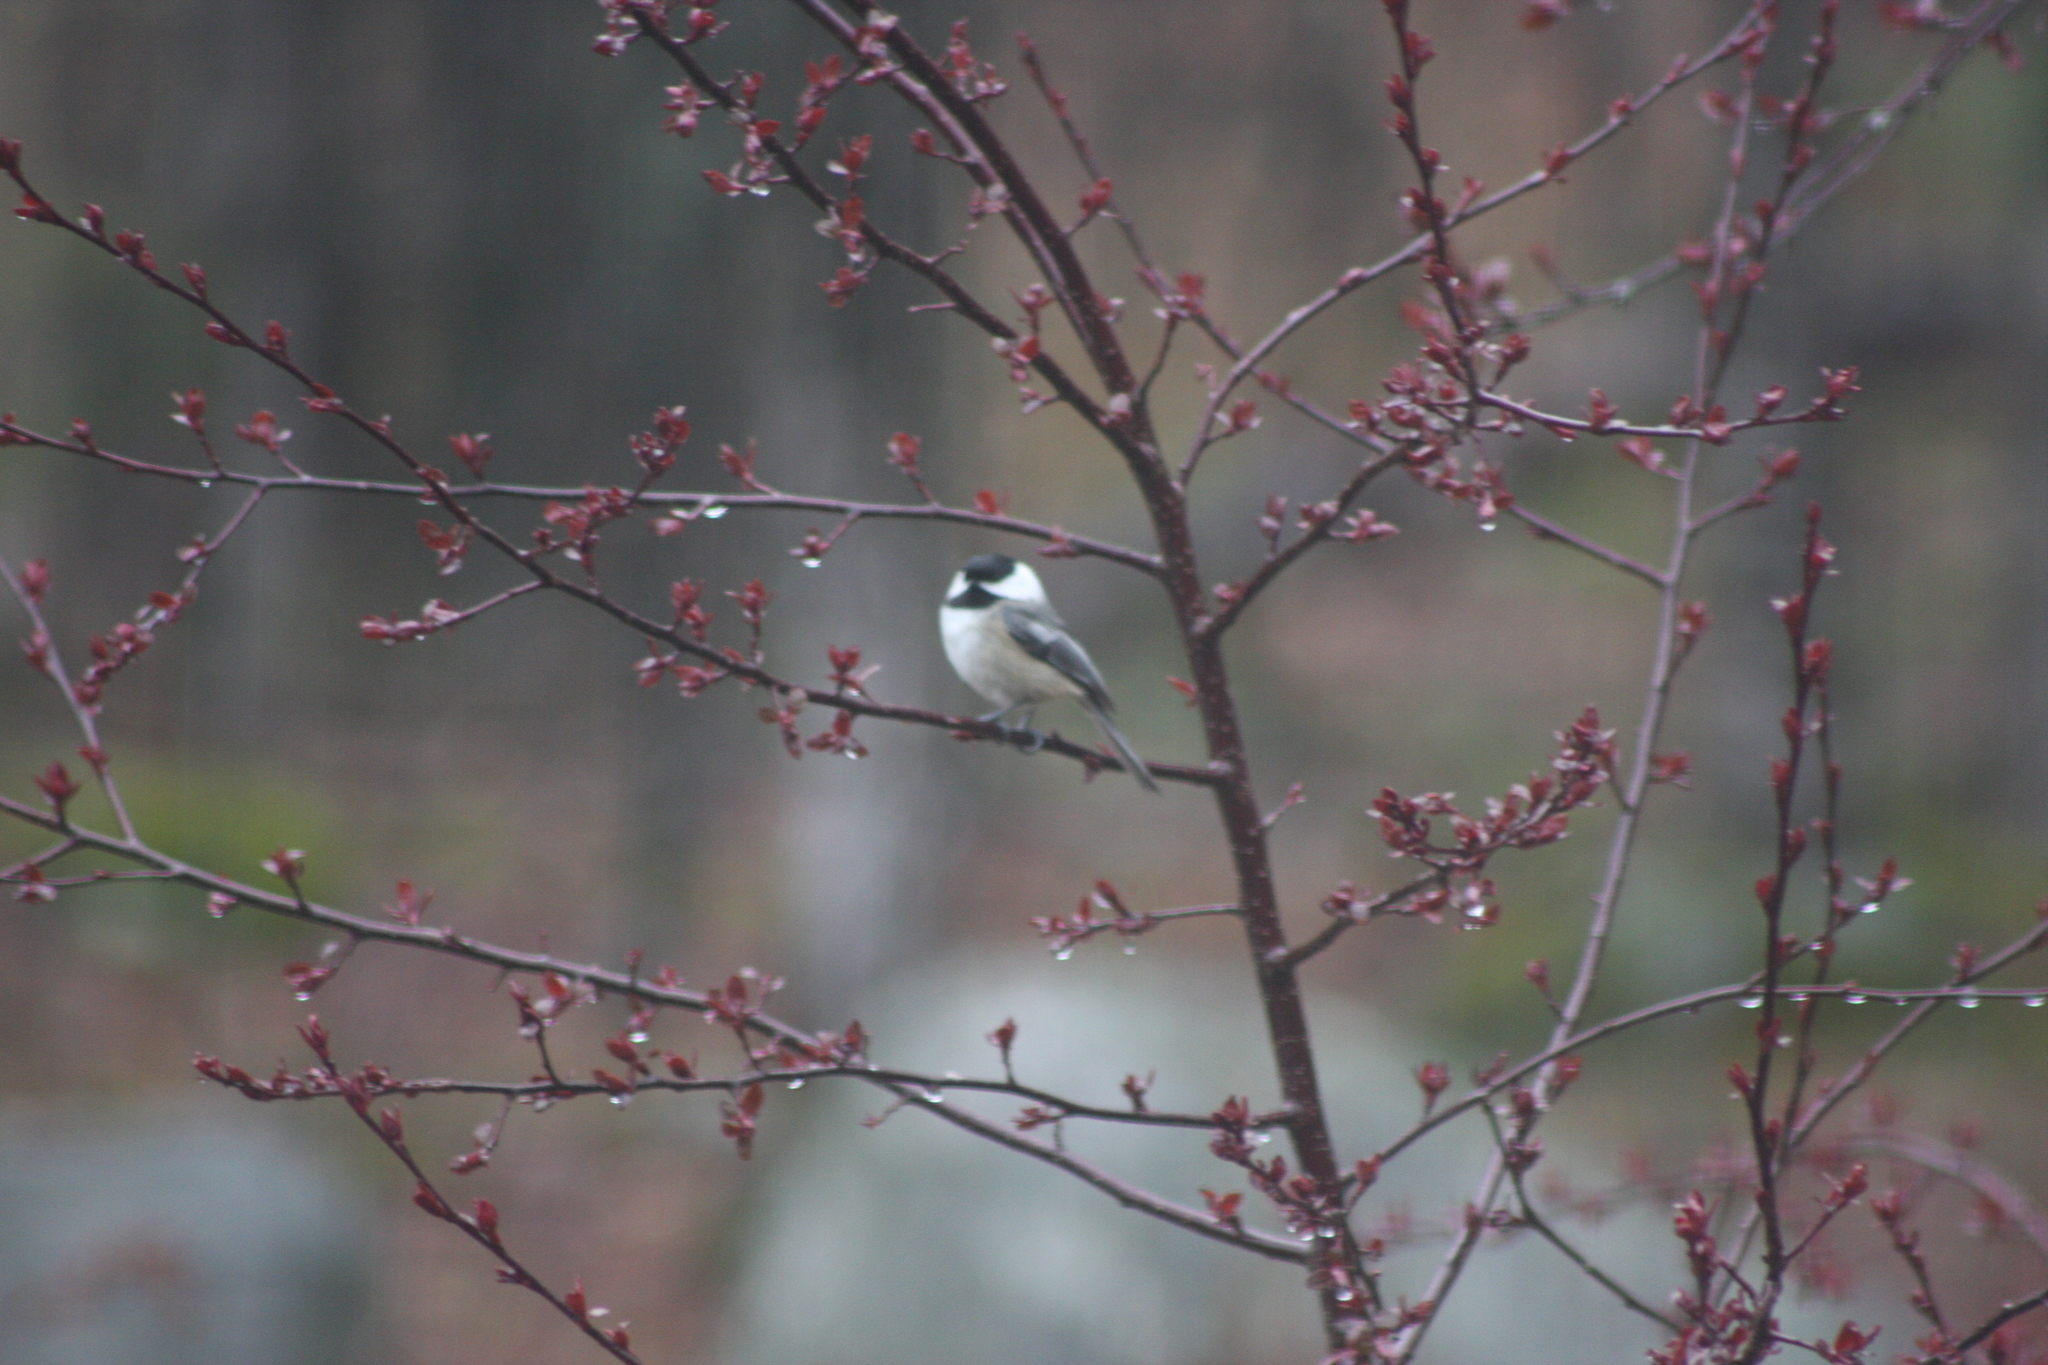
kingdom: Animalia
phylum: Chordata
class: Aves
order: Passeriformes
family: Paridae
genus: Poecile
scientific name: Poecile atricapillus
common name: Black-capped chickadee
